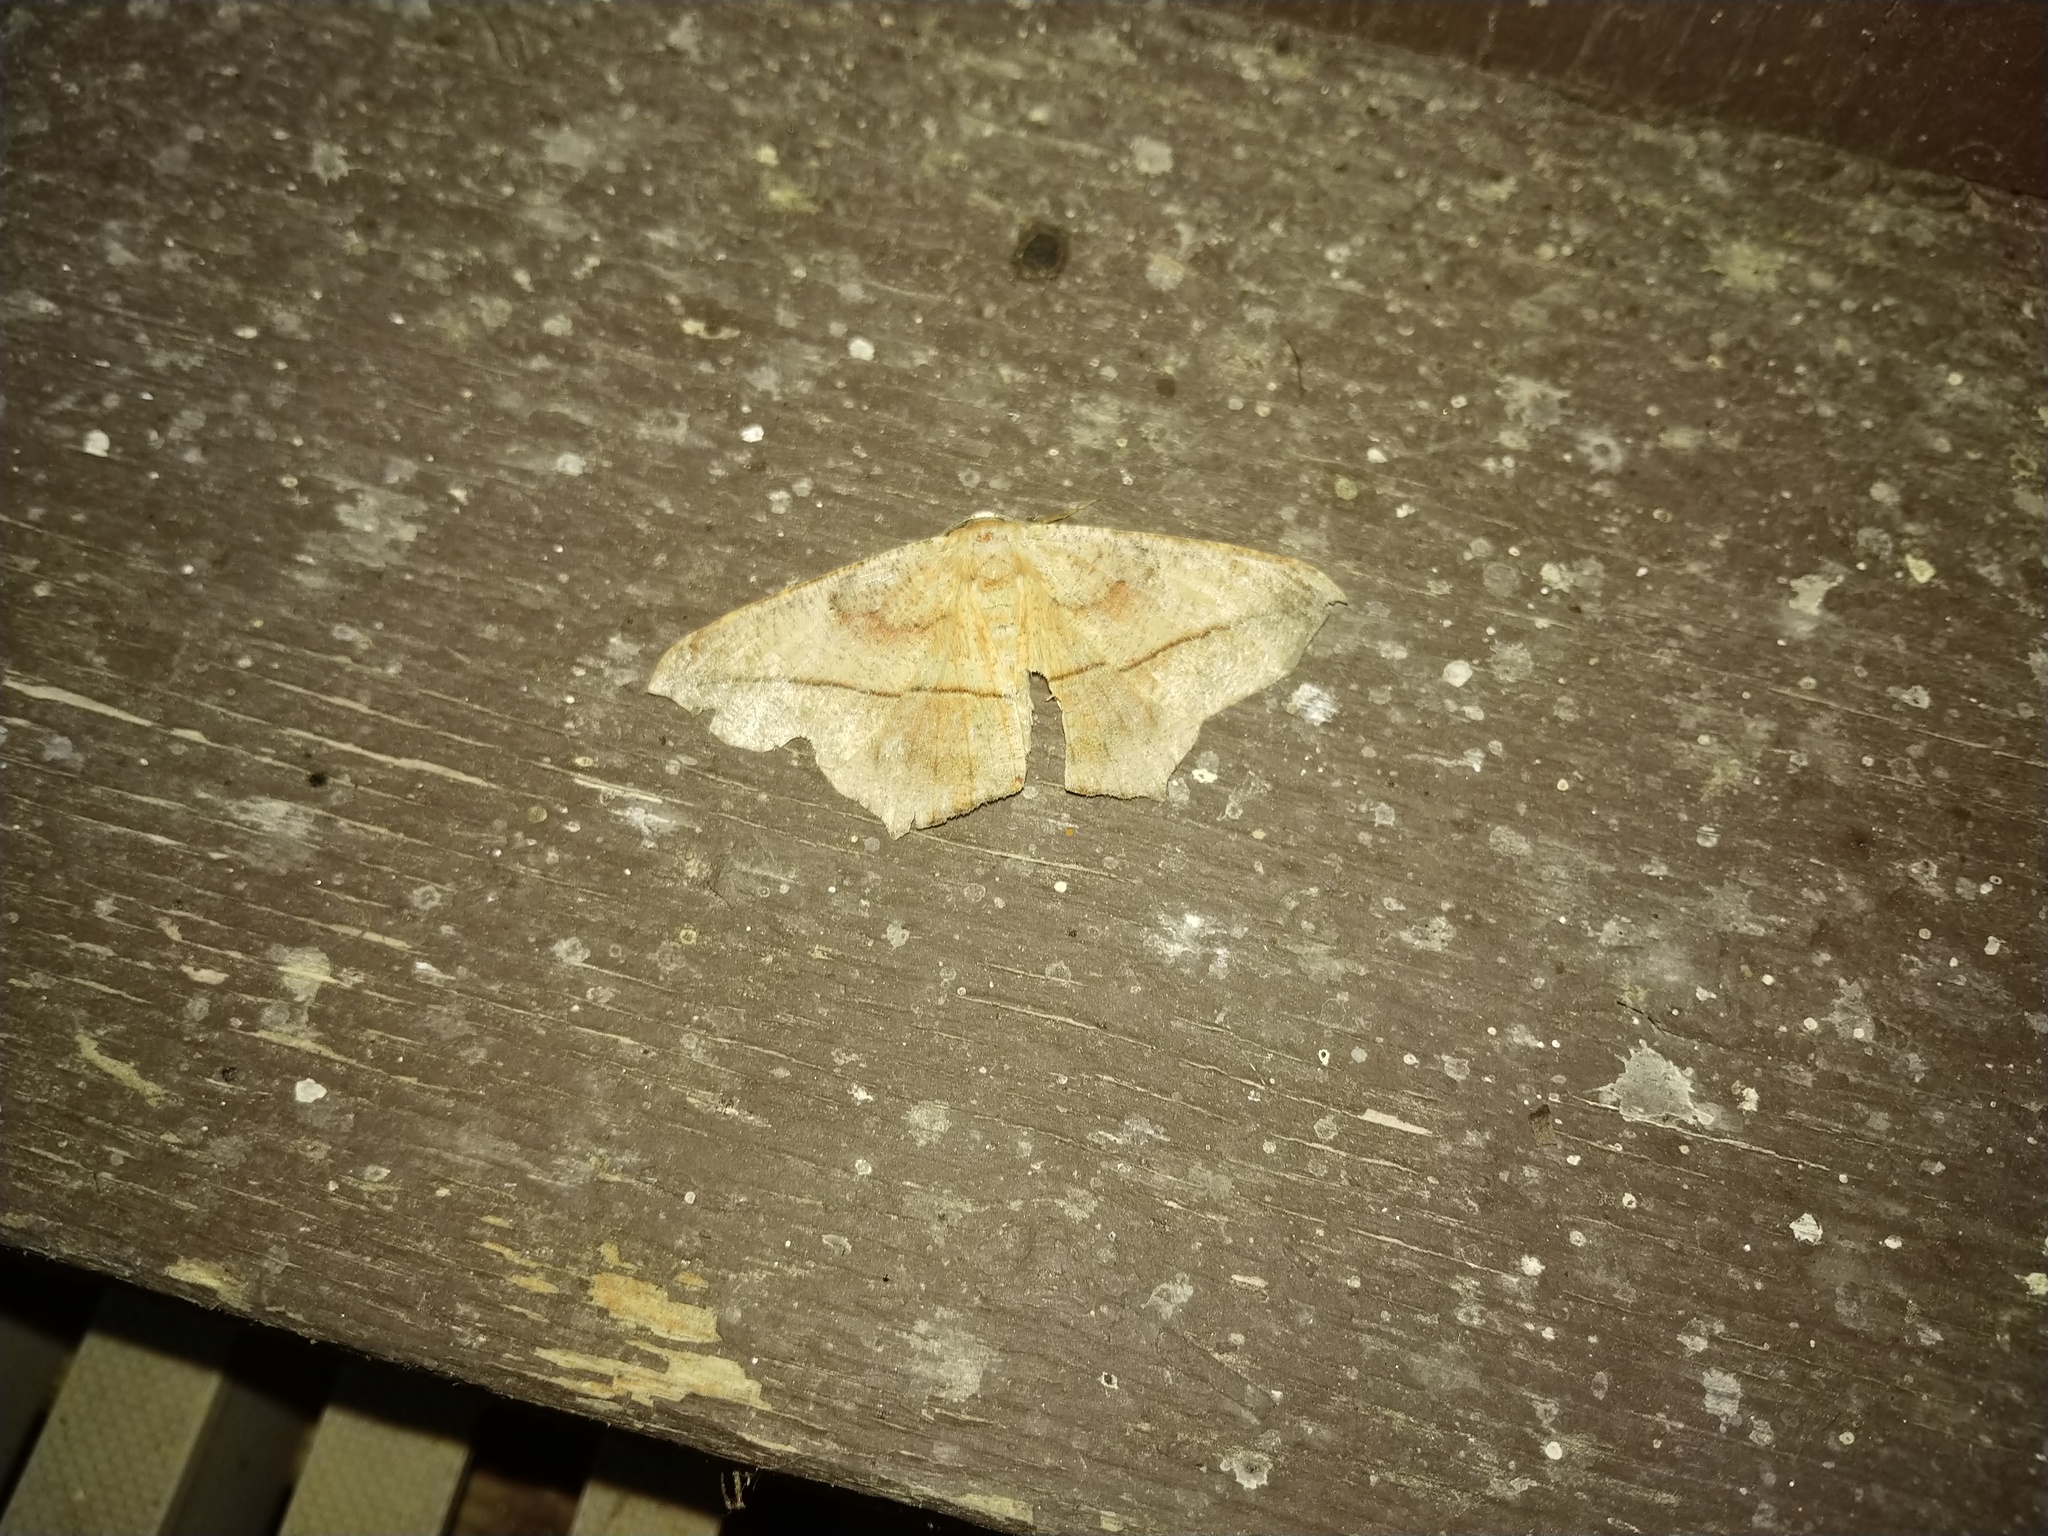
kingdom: Animalia
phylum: Arthropoda
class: Insecta
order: Lepidoptera
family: Geometridae
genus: Prochoerodes
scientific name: Prochoerodes lineola
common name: Large maple spanworm
